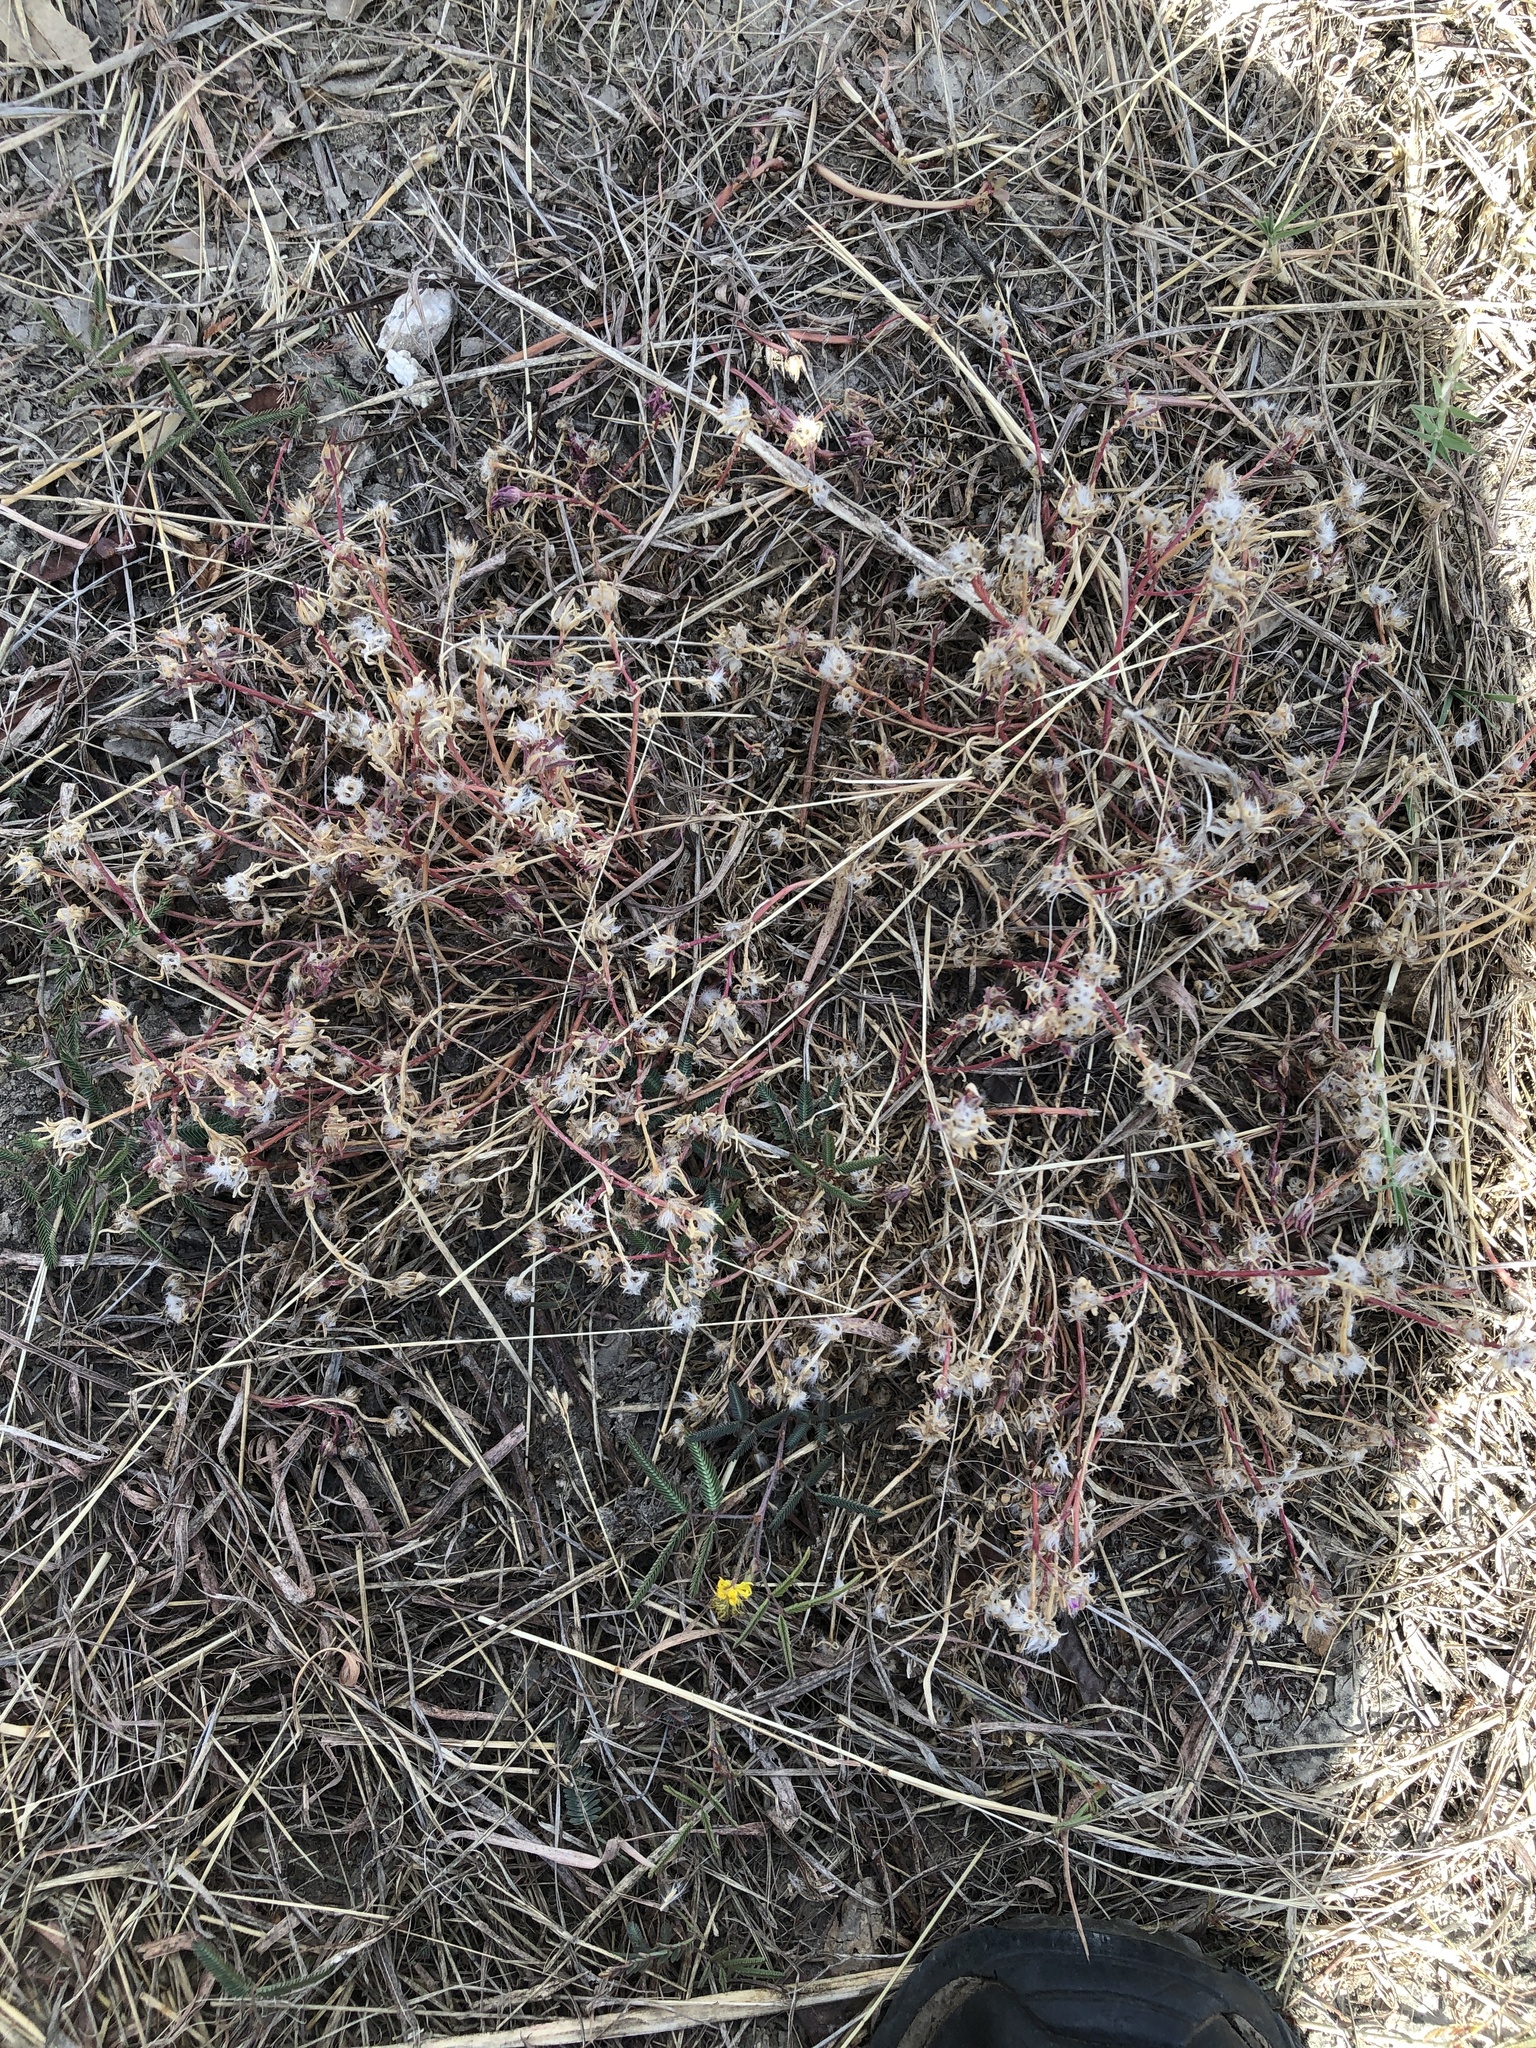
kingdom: Plantae
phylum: Tracheophyta
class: Magnoliopsida
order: Caryophyllales
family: Portulacaceae
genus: Portulaca
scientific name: Portulaca pilosa
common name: Kiss me quick
